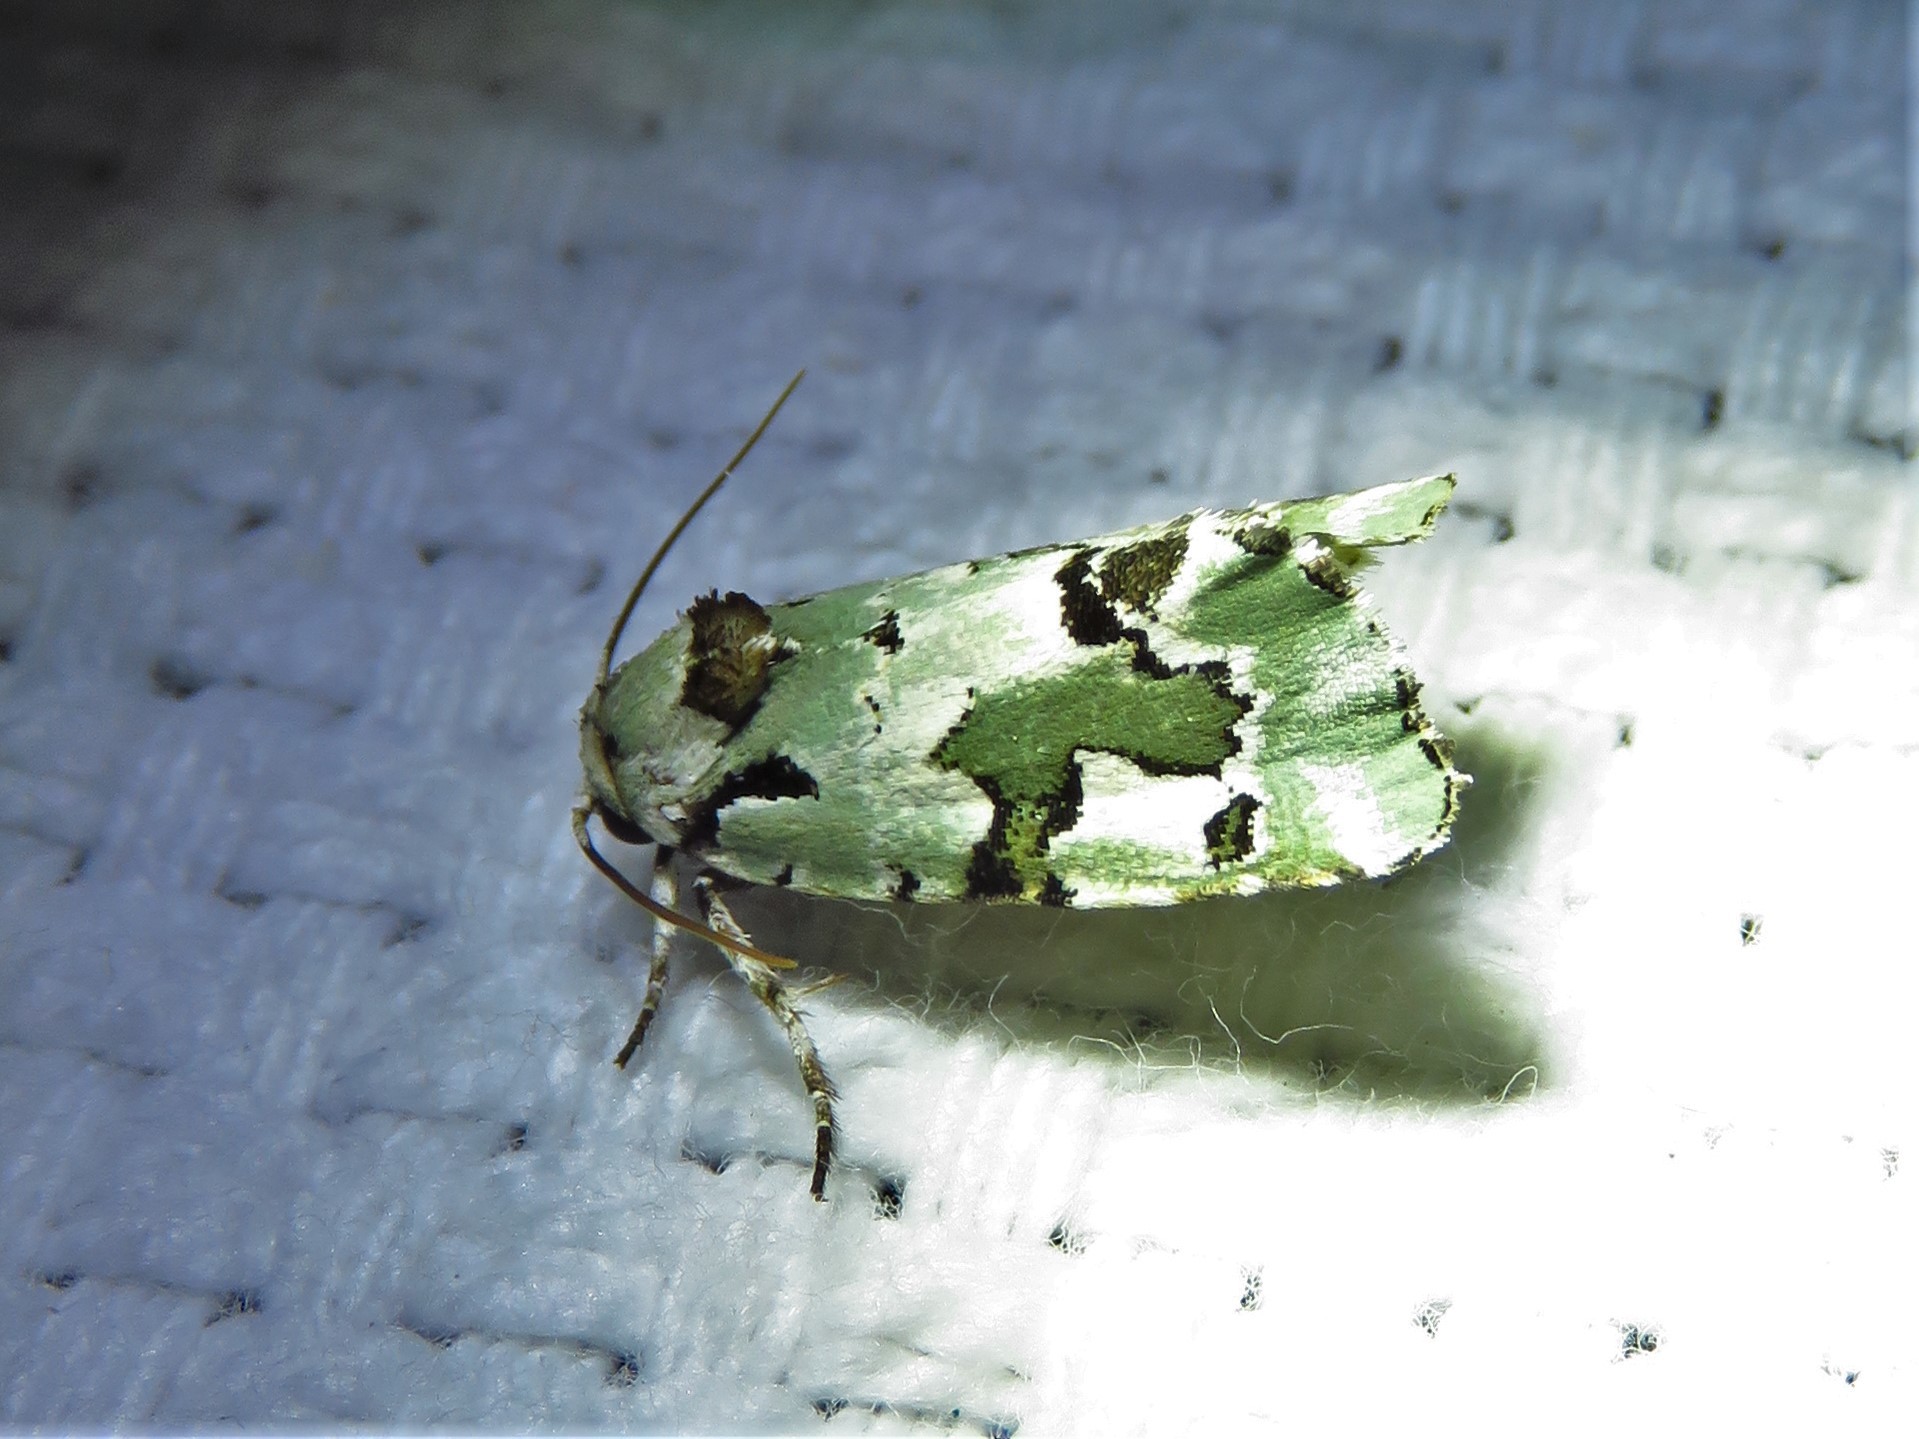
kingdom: Animalia
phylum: Arthropoda
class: Insecta
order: Lepidoptera
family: Noctuidae
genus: Emarginea
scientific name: Emarginea percara
